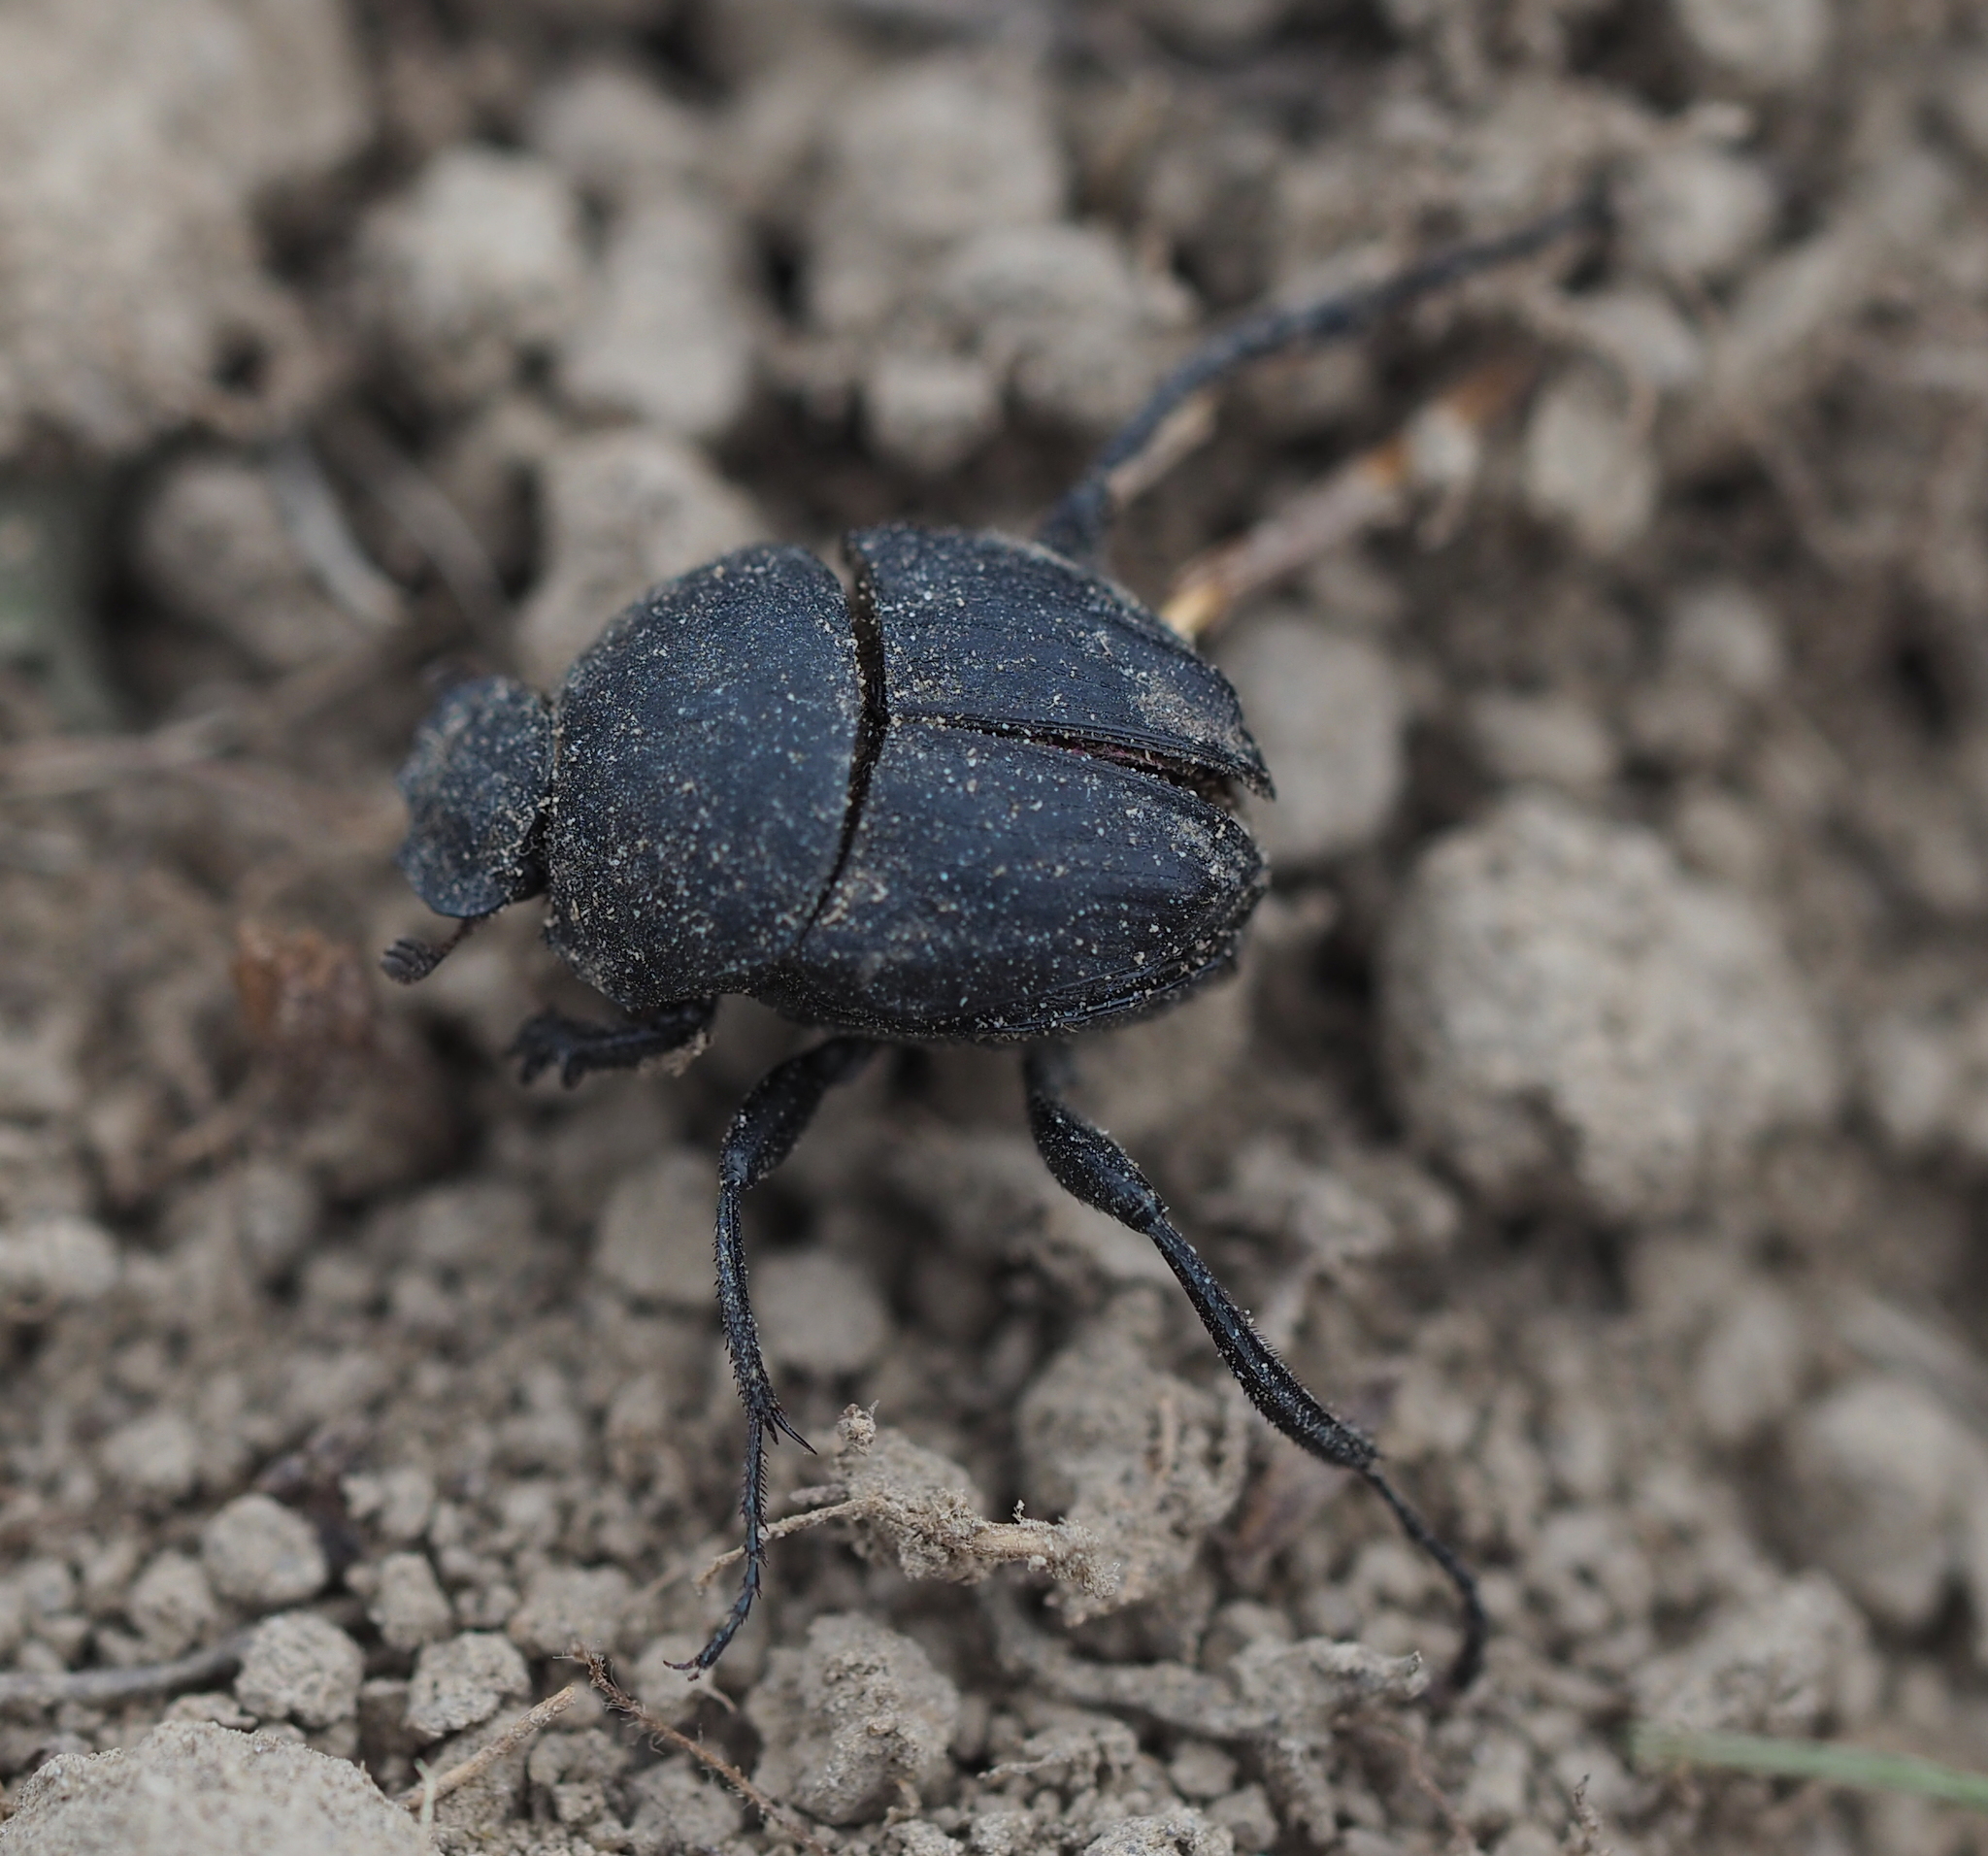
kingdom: Animalia
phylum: Arthropoda
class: Insecta
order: Coleoptera
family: Scarabaeidae
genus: Sisyphus
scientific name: Sisyphus schaefferi
